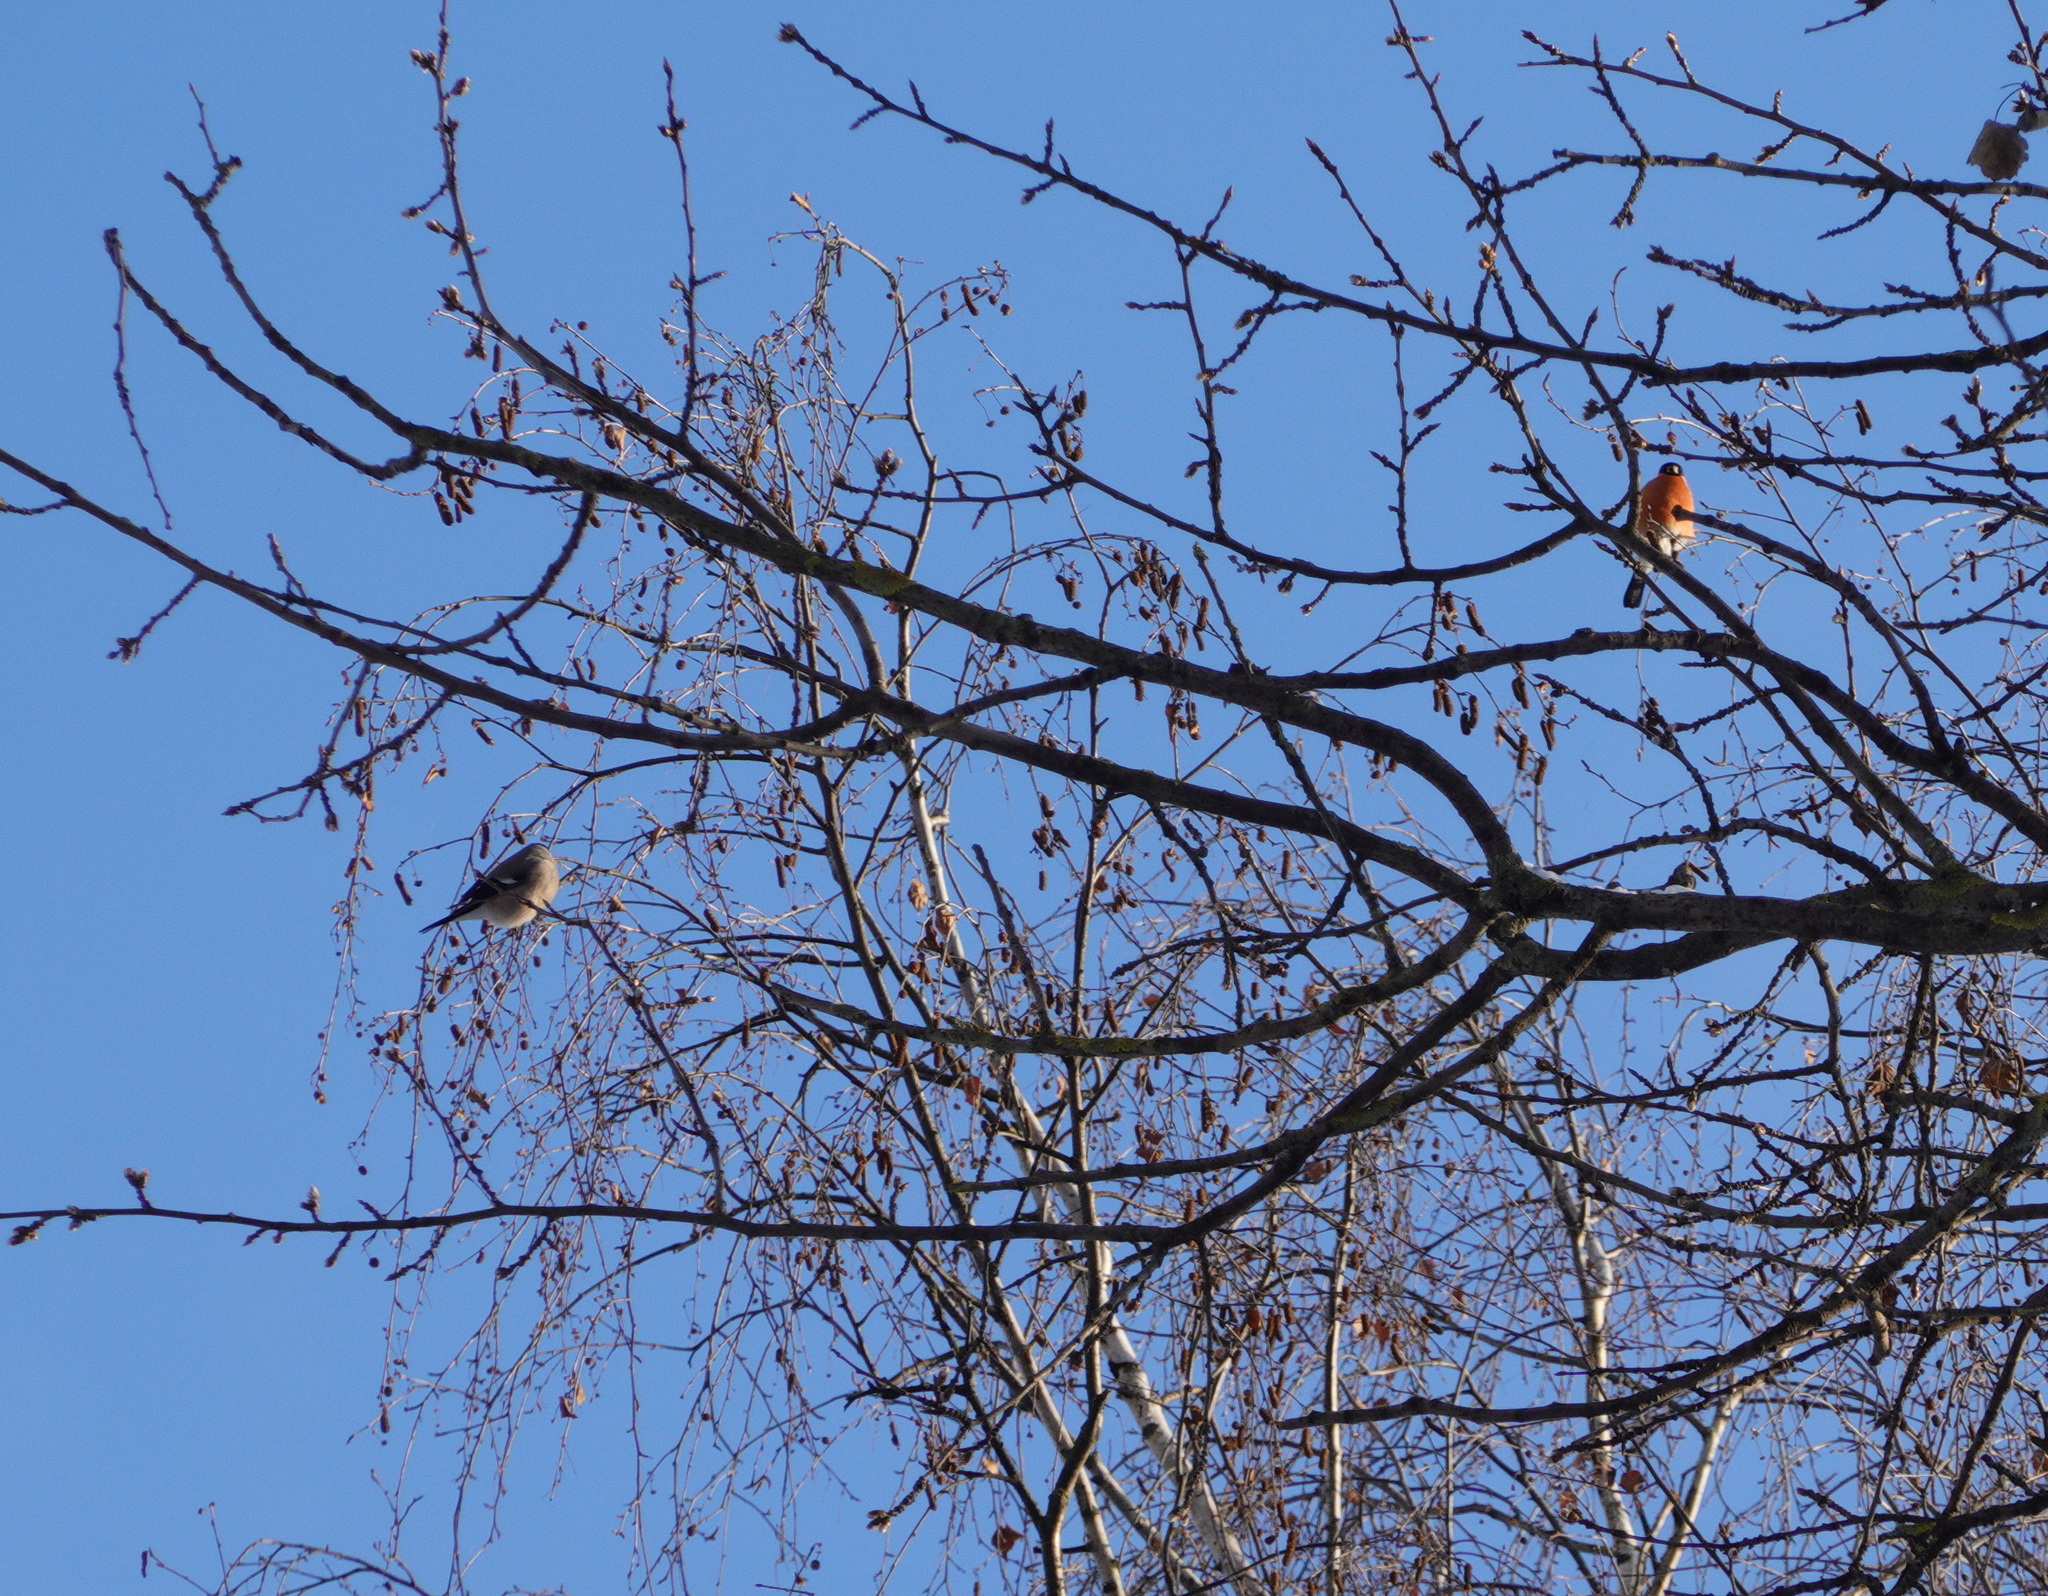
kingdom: Animalia
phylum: Chordata
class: Aves
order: Passeriformes
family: Fringillidae
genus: Pyrrhula
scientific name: Pyrrhula pyrrhula
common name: Eurasian bullfinch
